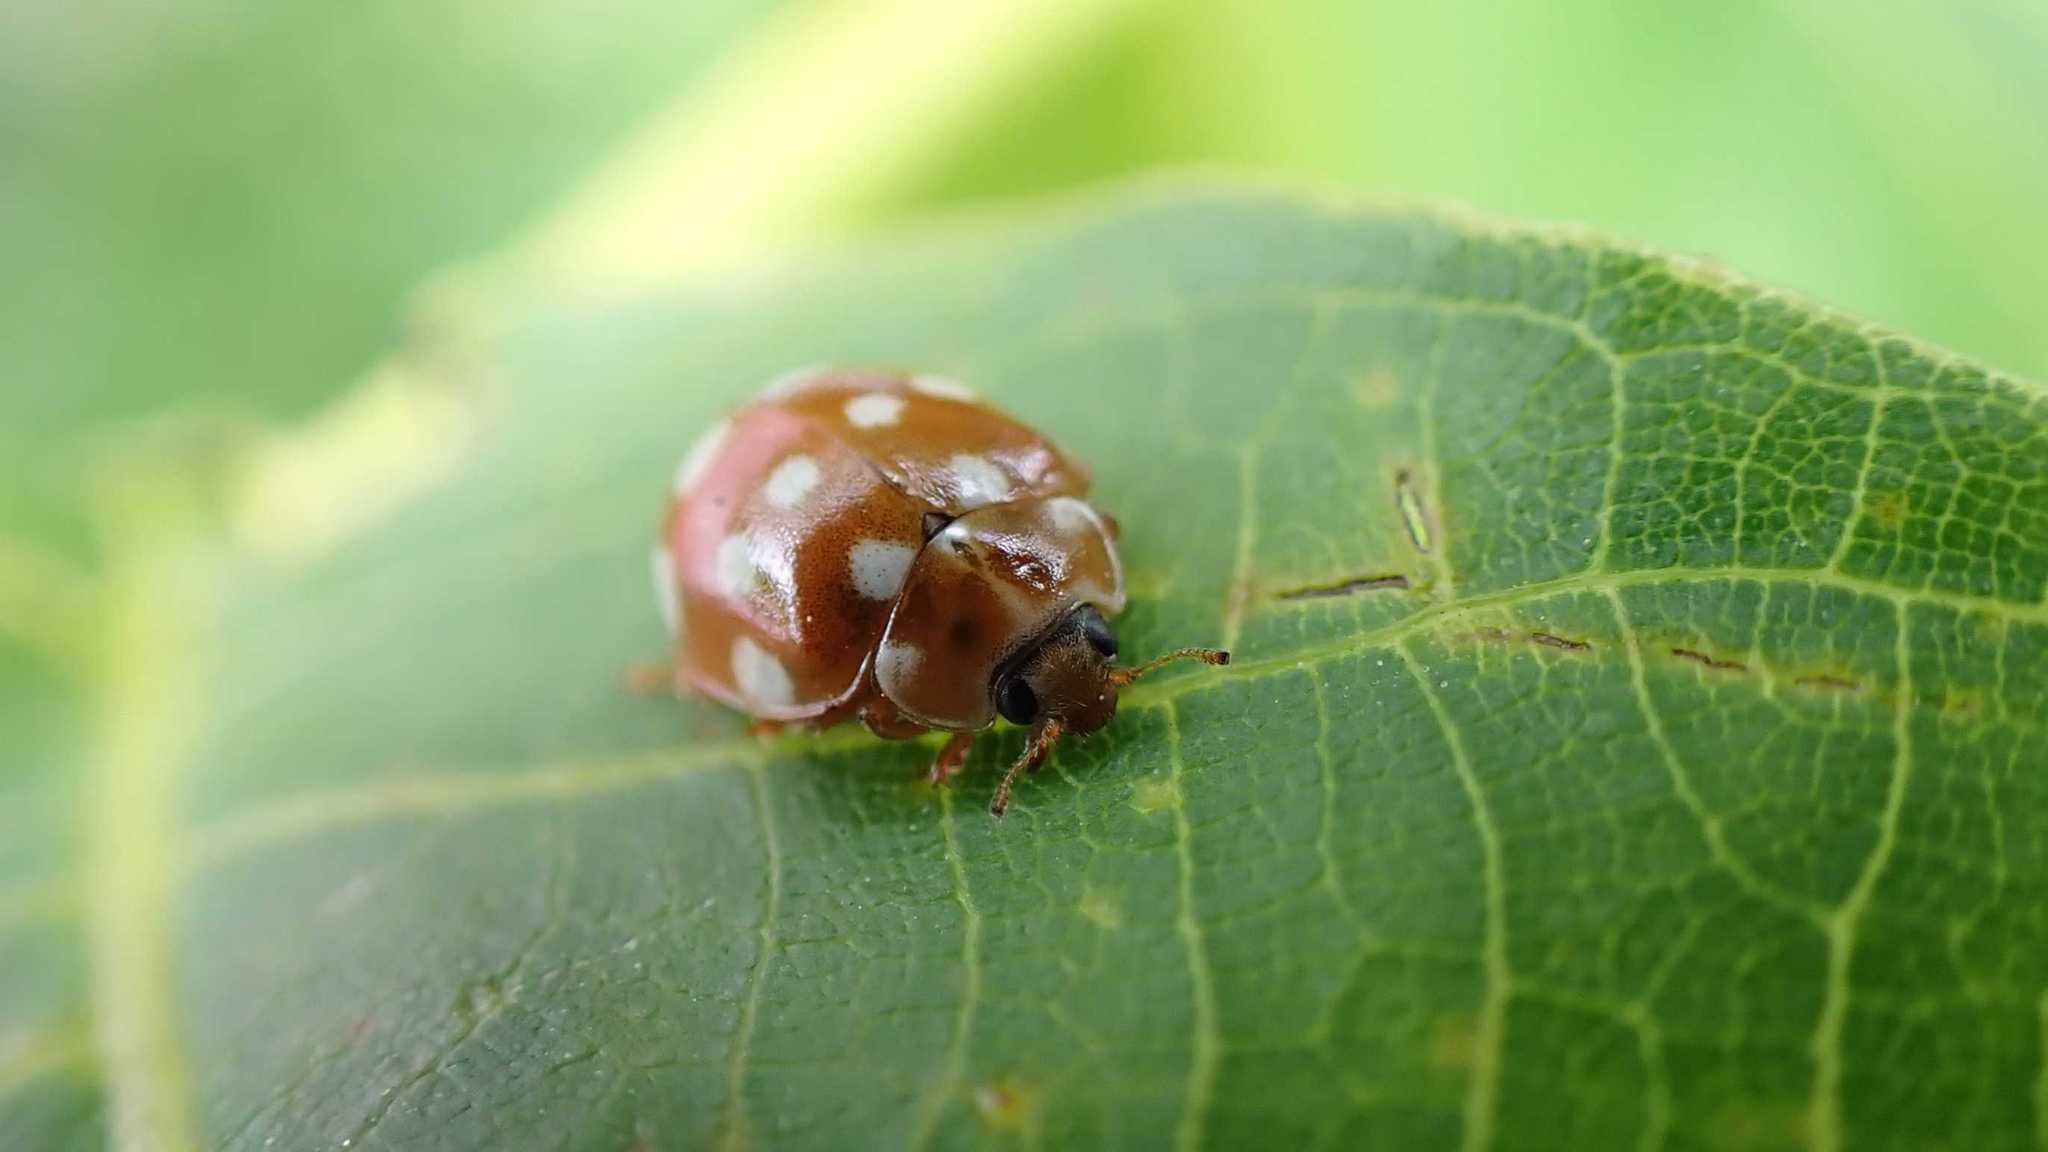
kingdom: Animalia
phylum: Arthropoda
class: Insecta
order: Coleoptera
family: Coccinellidae
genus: Calvia
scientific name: Calvia quatuordecimguttata
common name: Cream-spot ladybird
